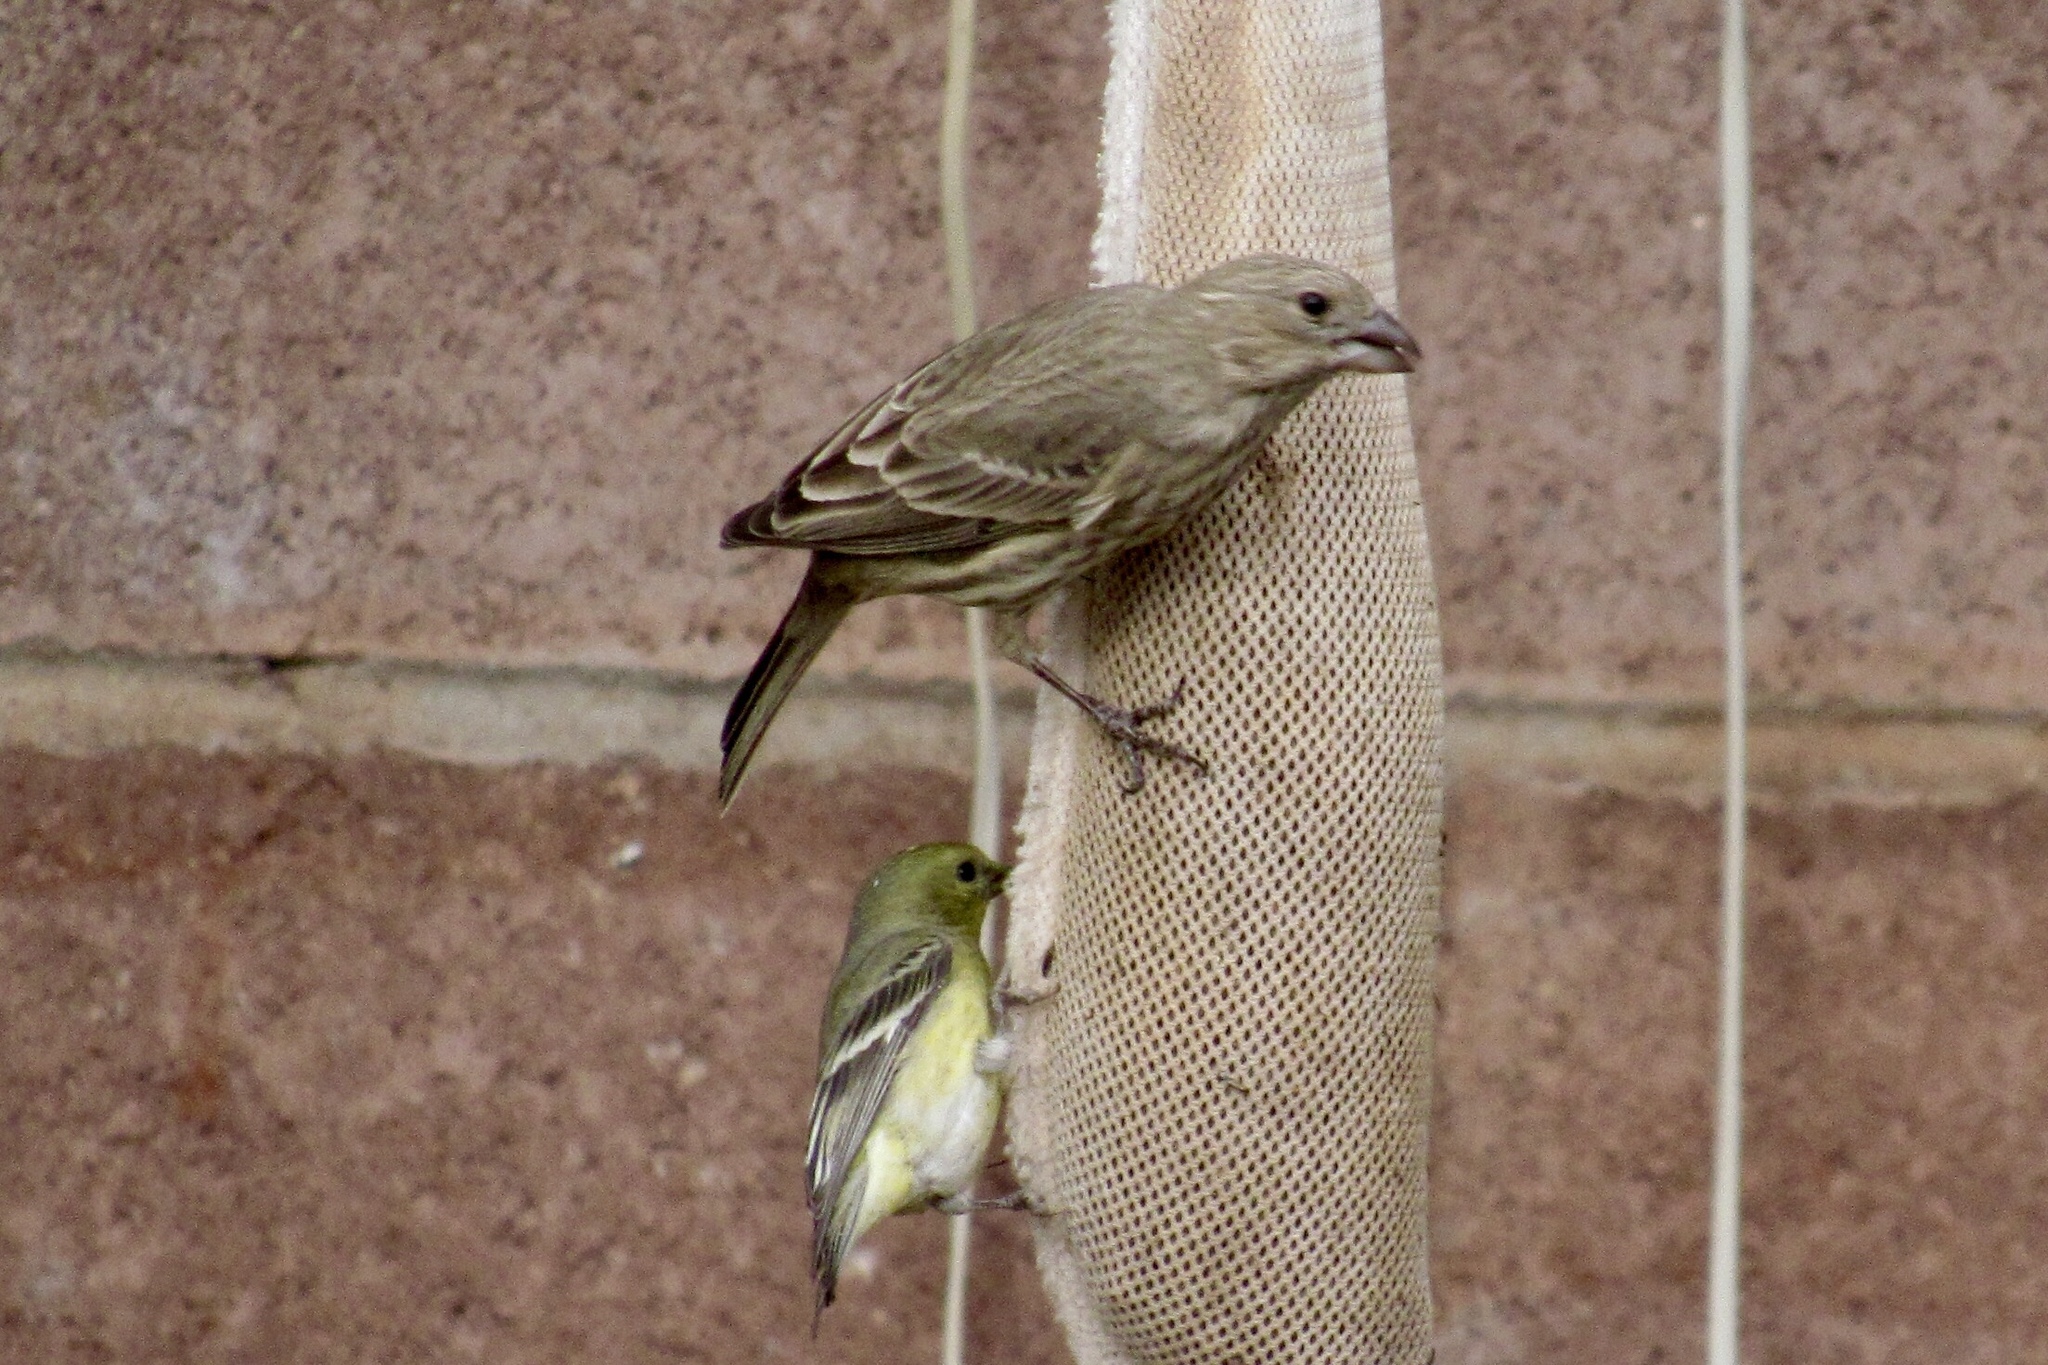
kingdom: Animalia
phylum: Chordata
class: Aves
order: Passeriformes
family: Fringillidae
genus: Haemorhous
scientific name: Haemorhous mexicanus
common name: House finch
